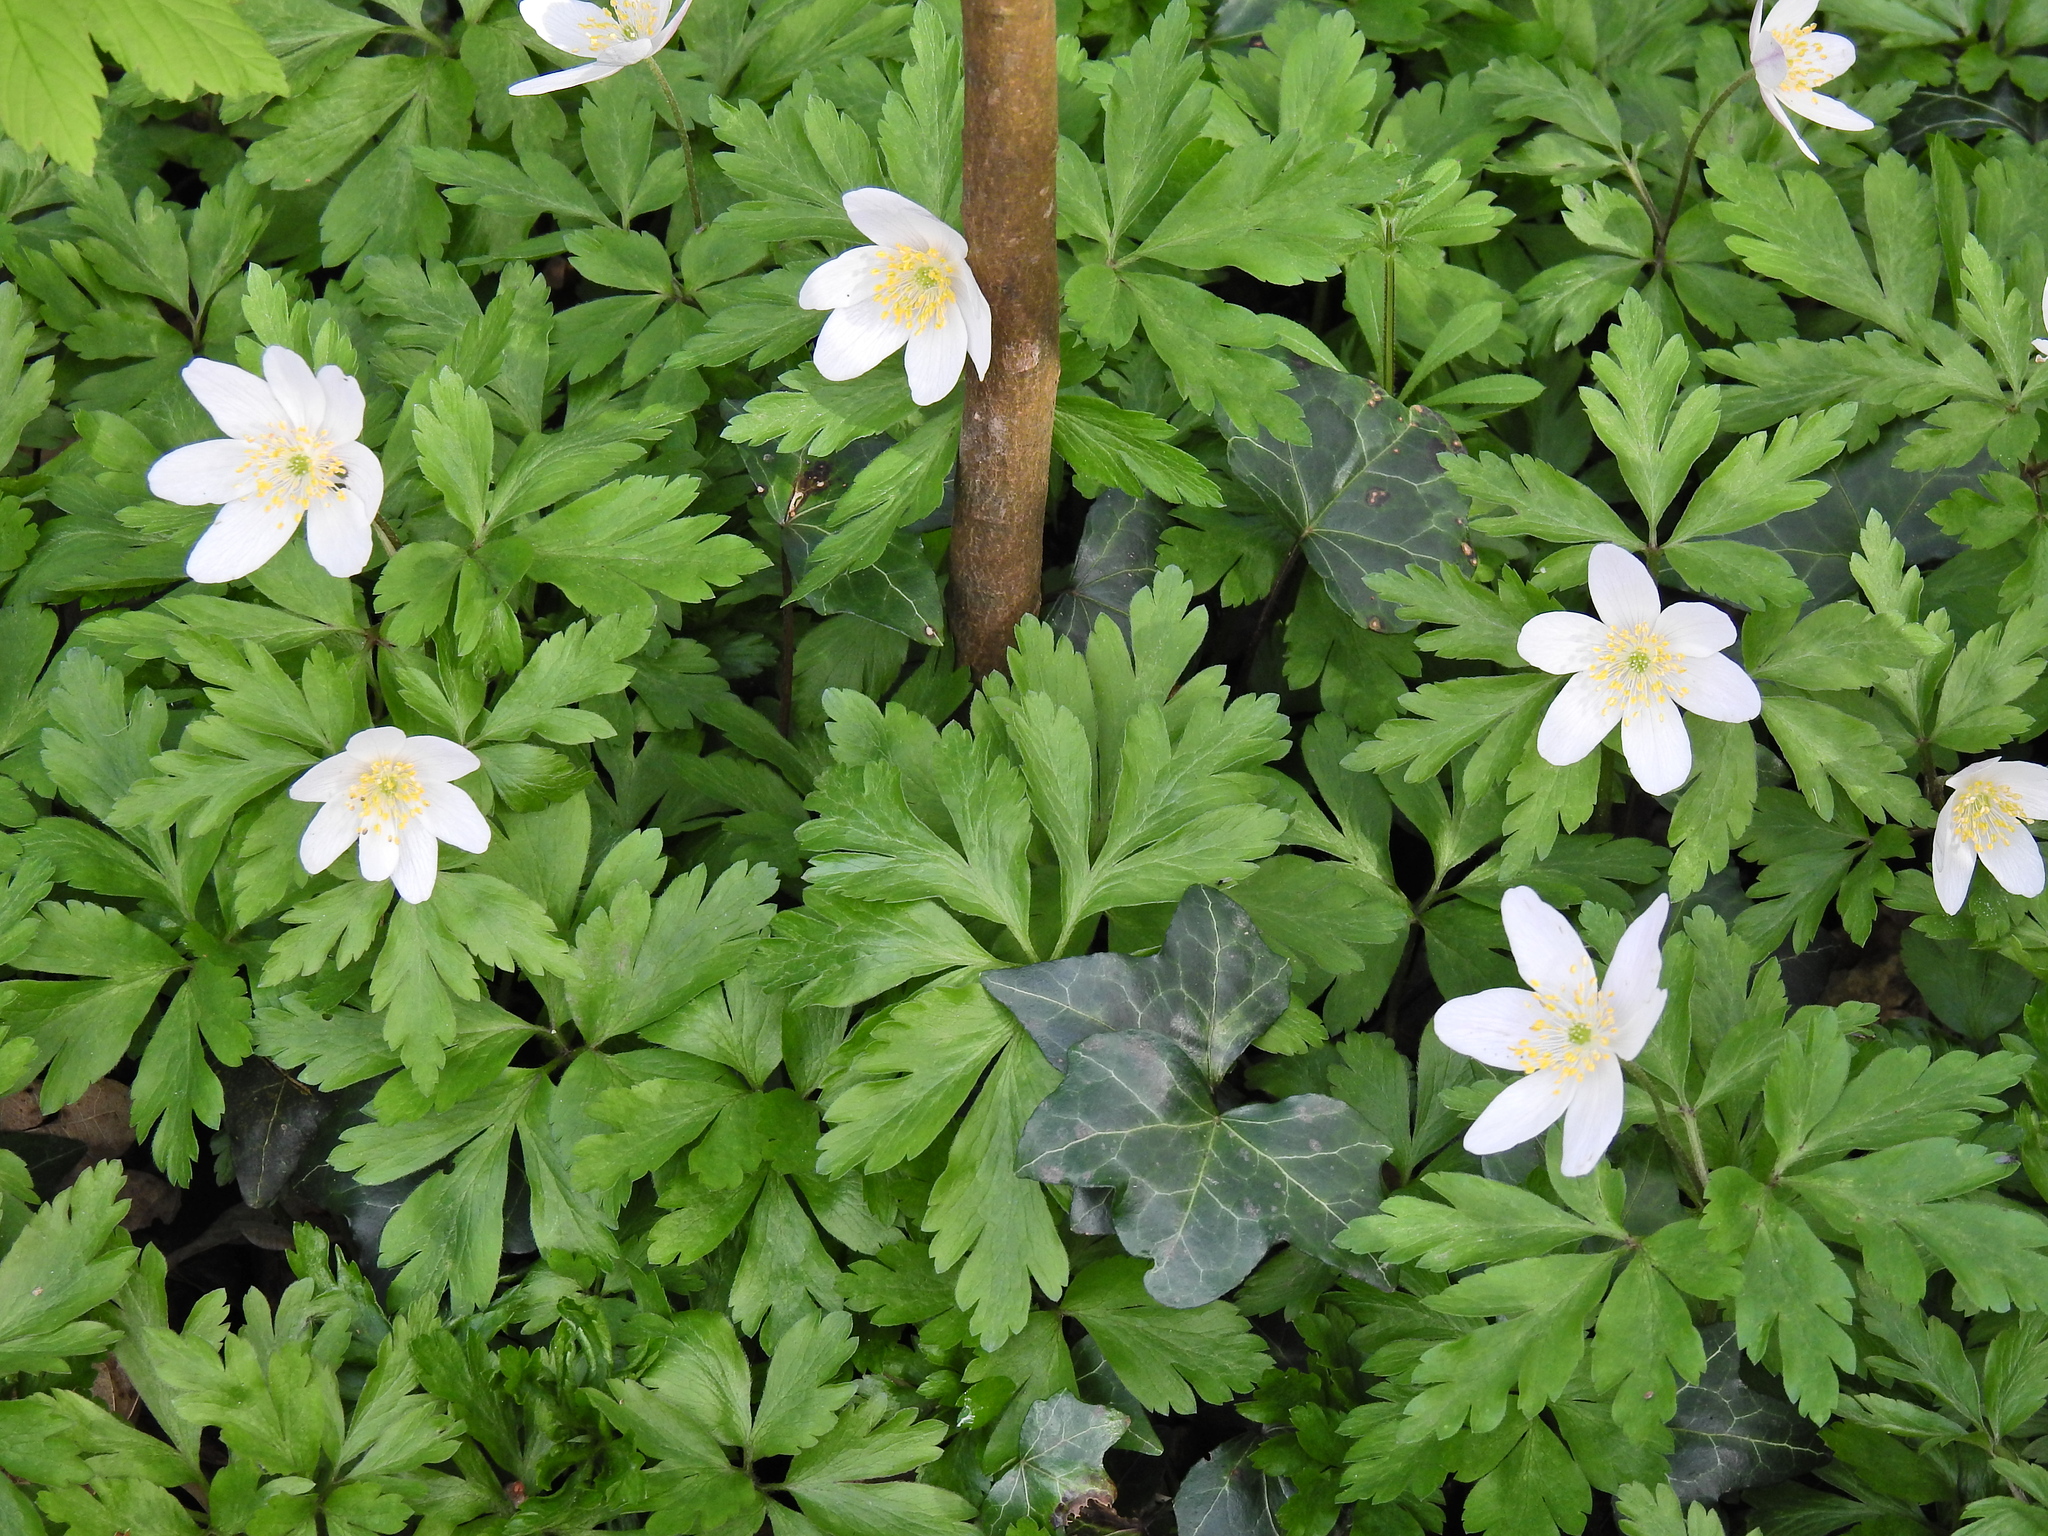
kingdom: Plantae
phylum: Tracheophyta
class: Magnoliopsida
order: Ranunculales
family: Ranunculaceae
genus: Anemone
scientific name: Anemone nemorosa
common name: Wood anemone
